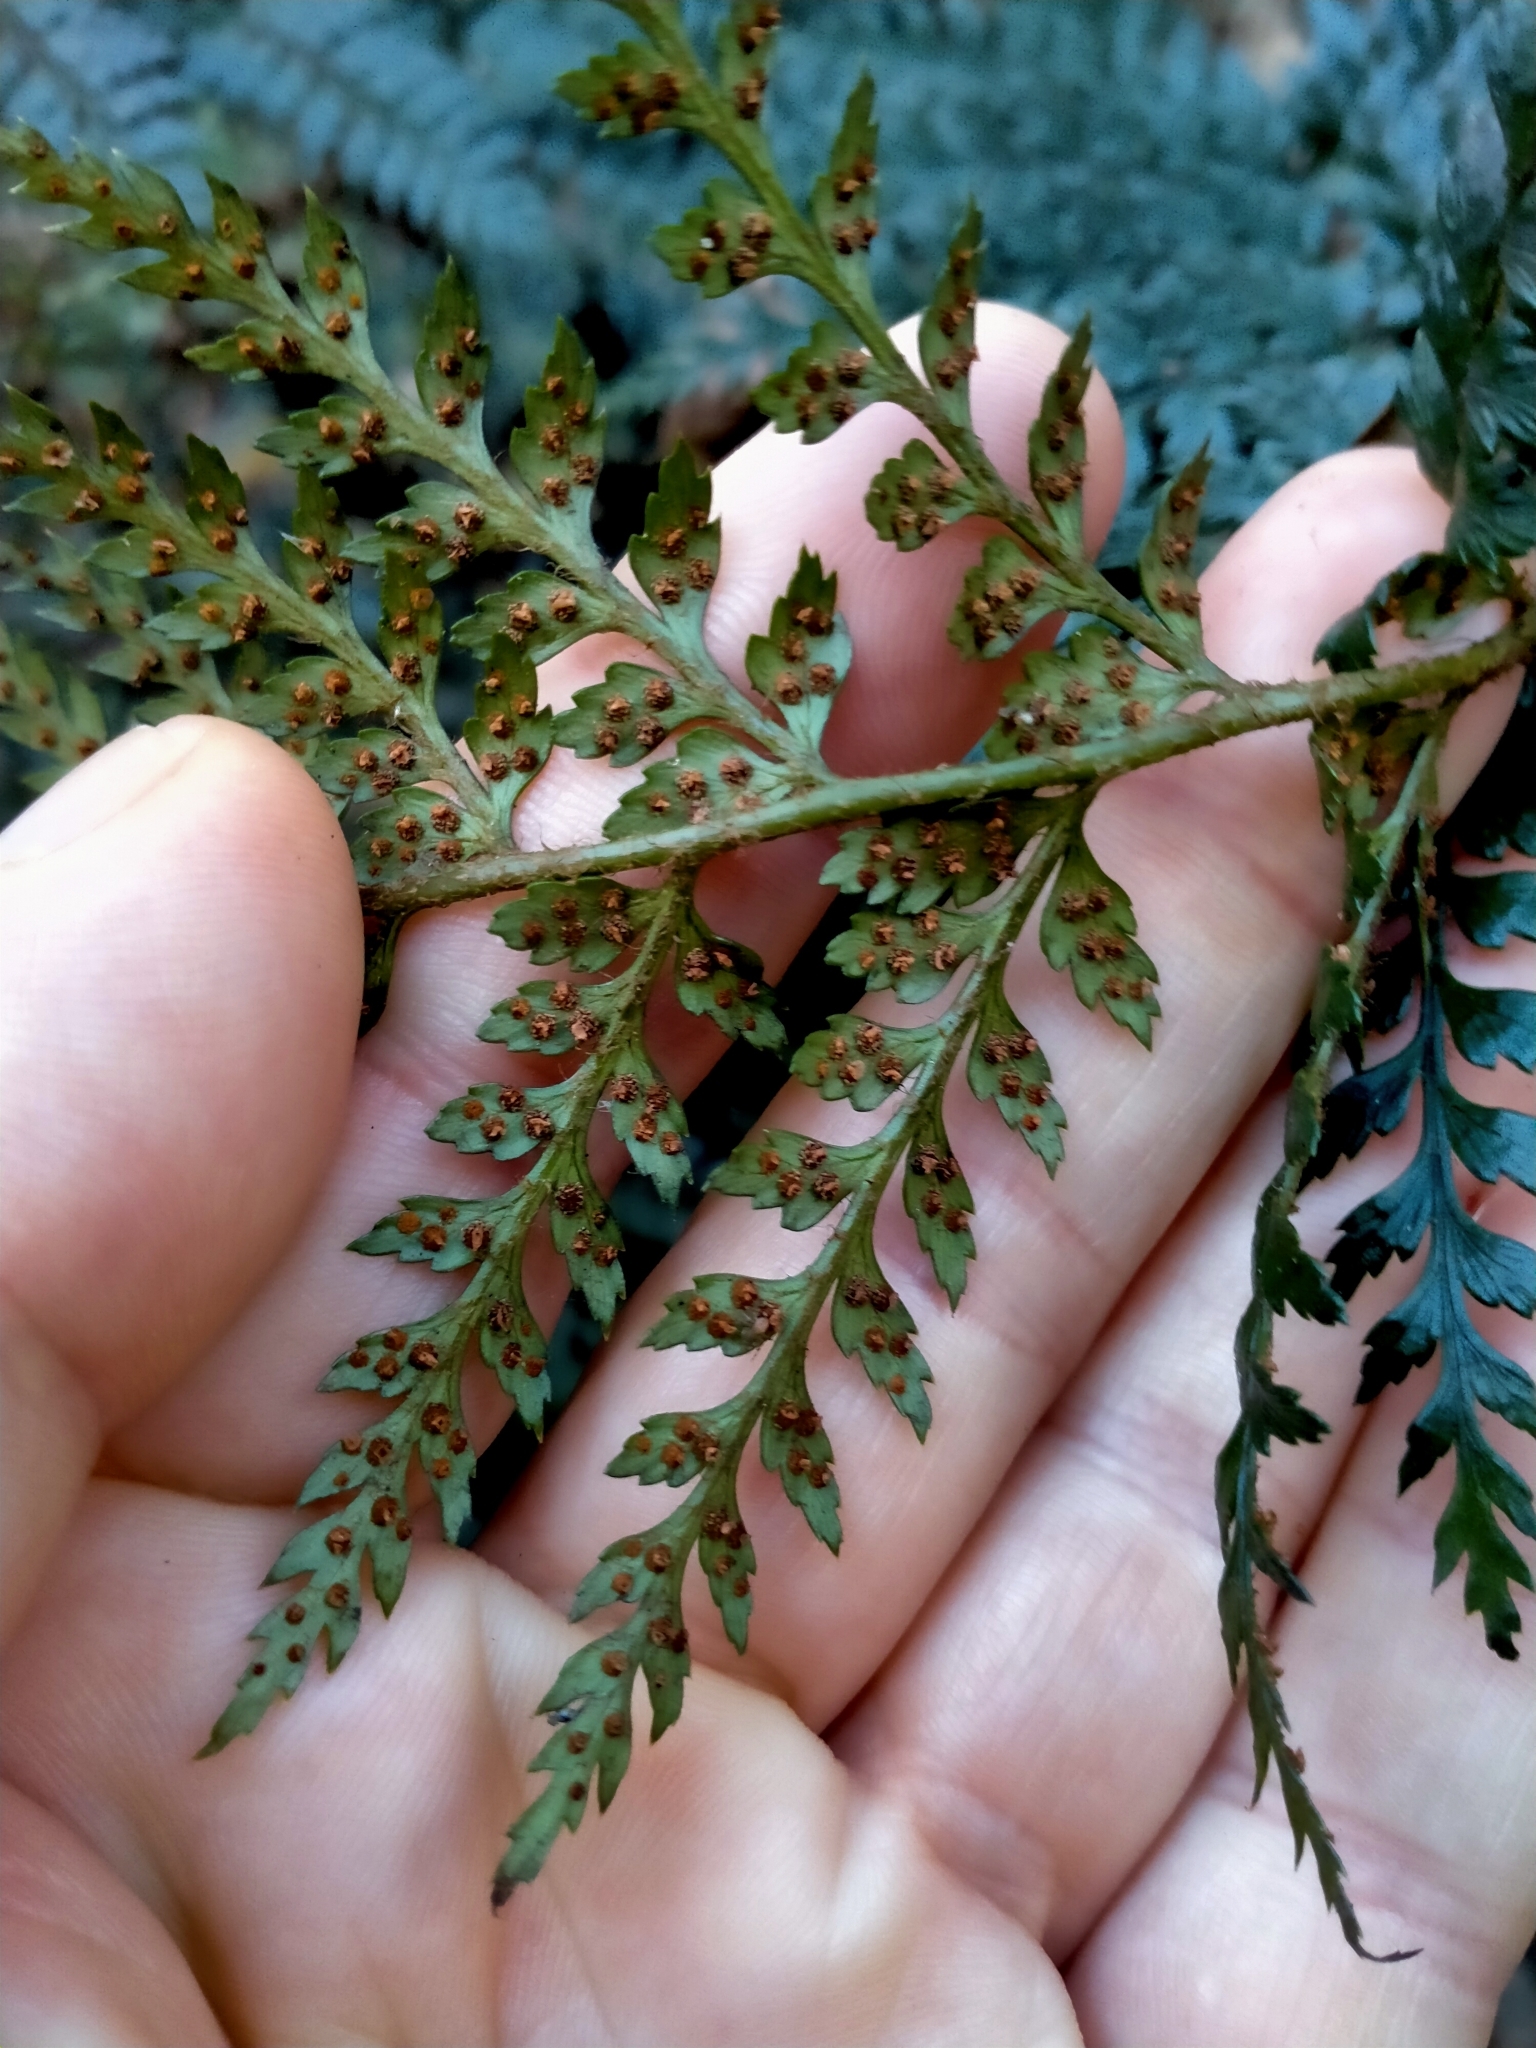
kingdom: Plantae
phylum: Tracheophyta
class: Polypodiopsida
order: Polypodiales
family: Dryopteridaceae
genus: Polystichum
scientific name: Polystichum neozelandicum
